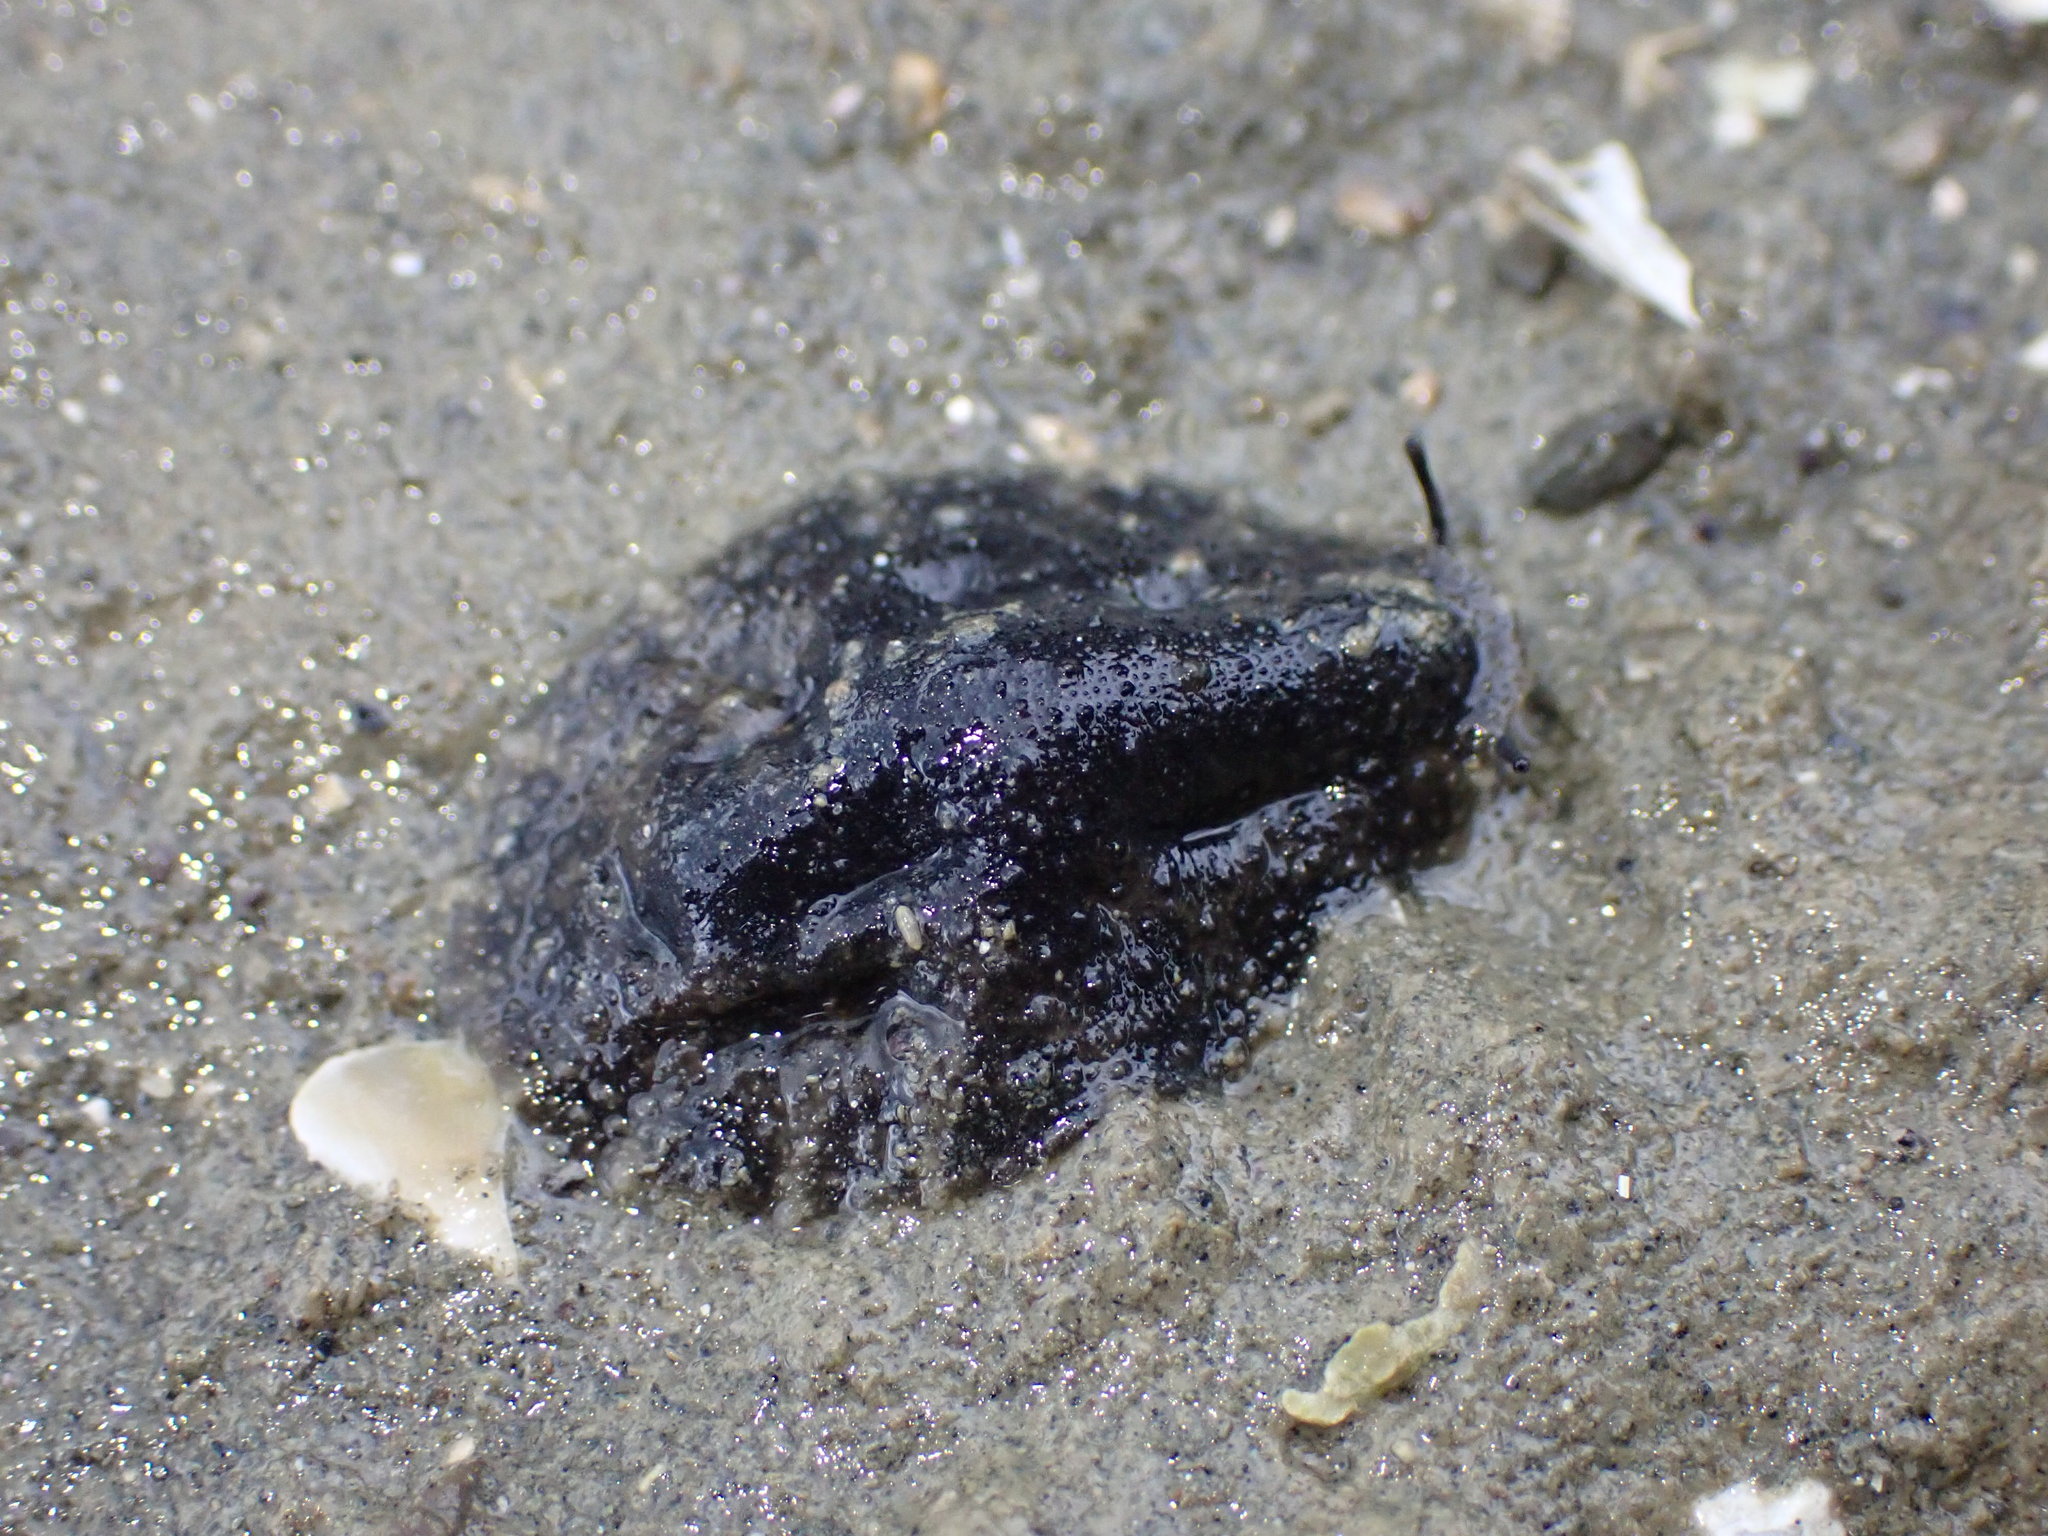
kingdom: Animalia
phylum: Mollusca
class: Gastropoda
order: Systellommatophora
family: Onchidiidae
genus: Onchidella
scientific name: Onchidella nigricans
